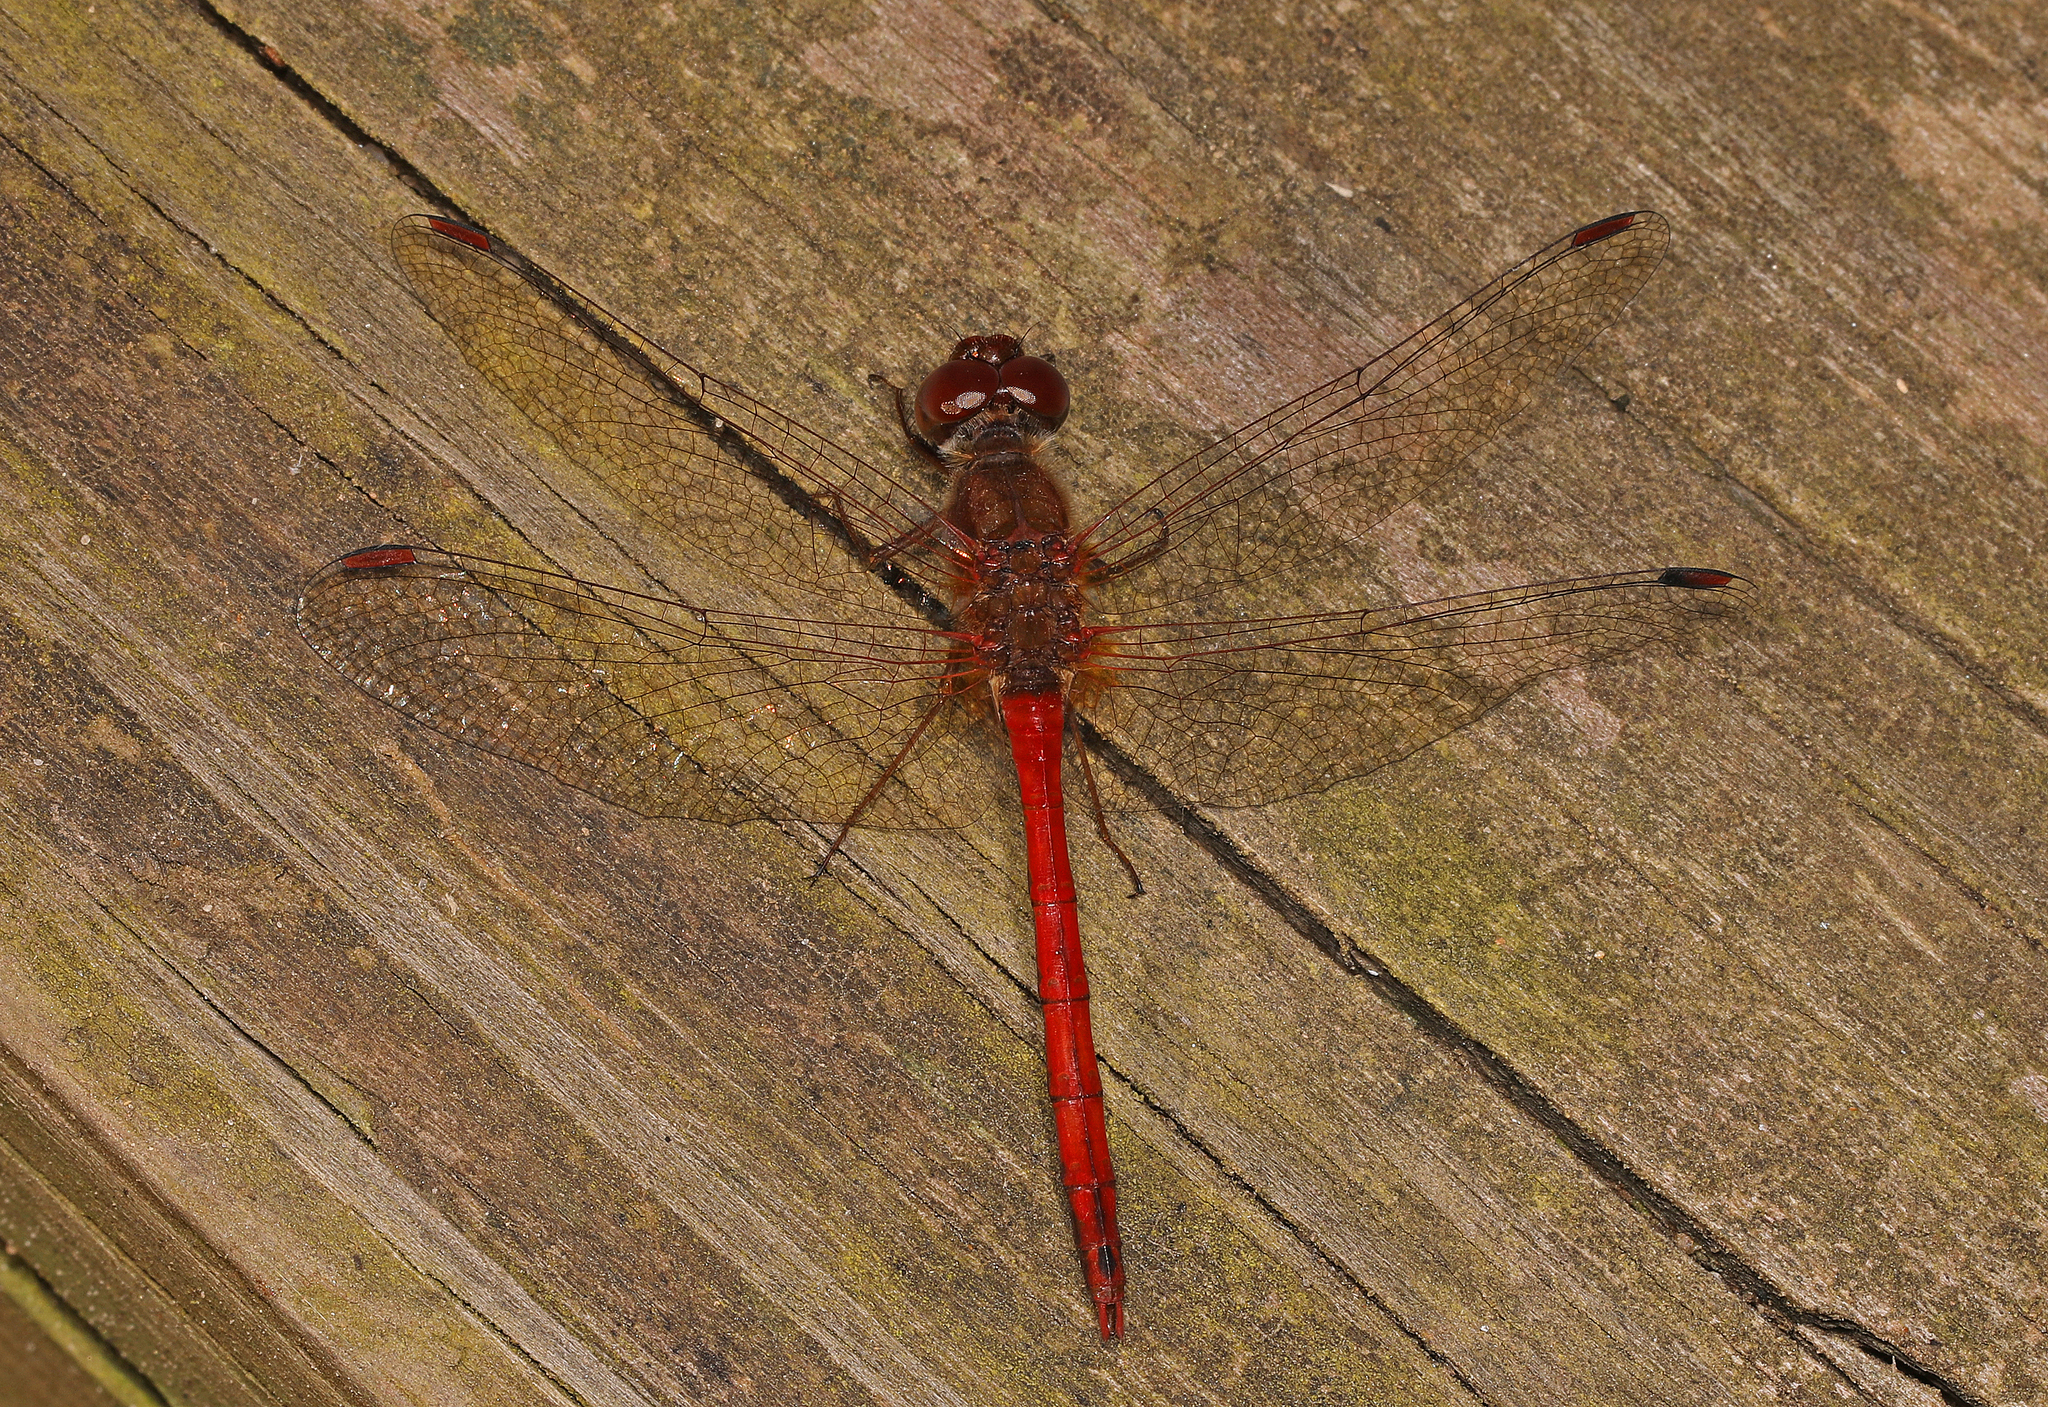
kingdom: Animalia
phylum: Arthropoda
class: Insecta
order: Odonata
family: Libellulidae
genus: Sympetrum
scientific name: Sympetrum vicinum
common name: Autumn meadowhawk
